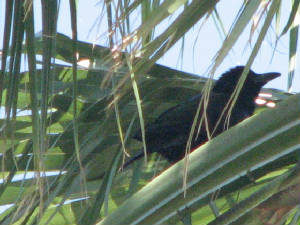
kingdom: Animalia
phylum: Chordata
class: Aves
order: Passeriformes
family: Corvidae
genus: Corvus
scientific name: Corvus imparatus
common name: Tamaulipas crow
